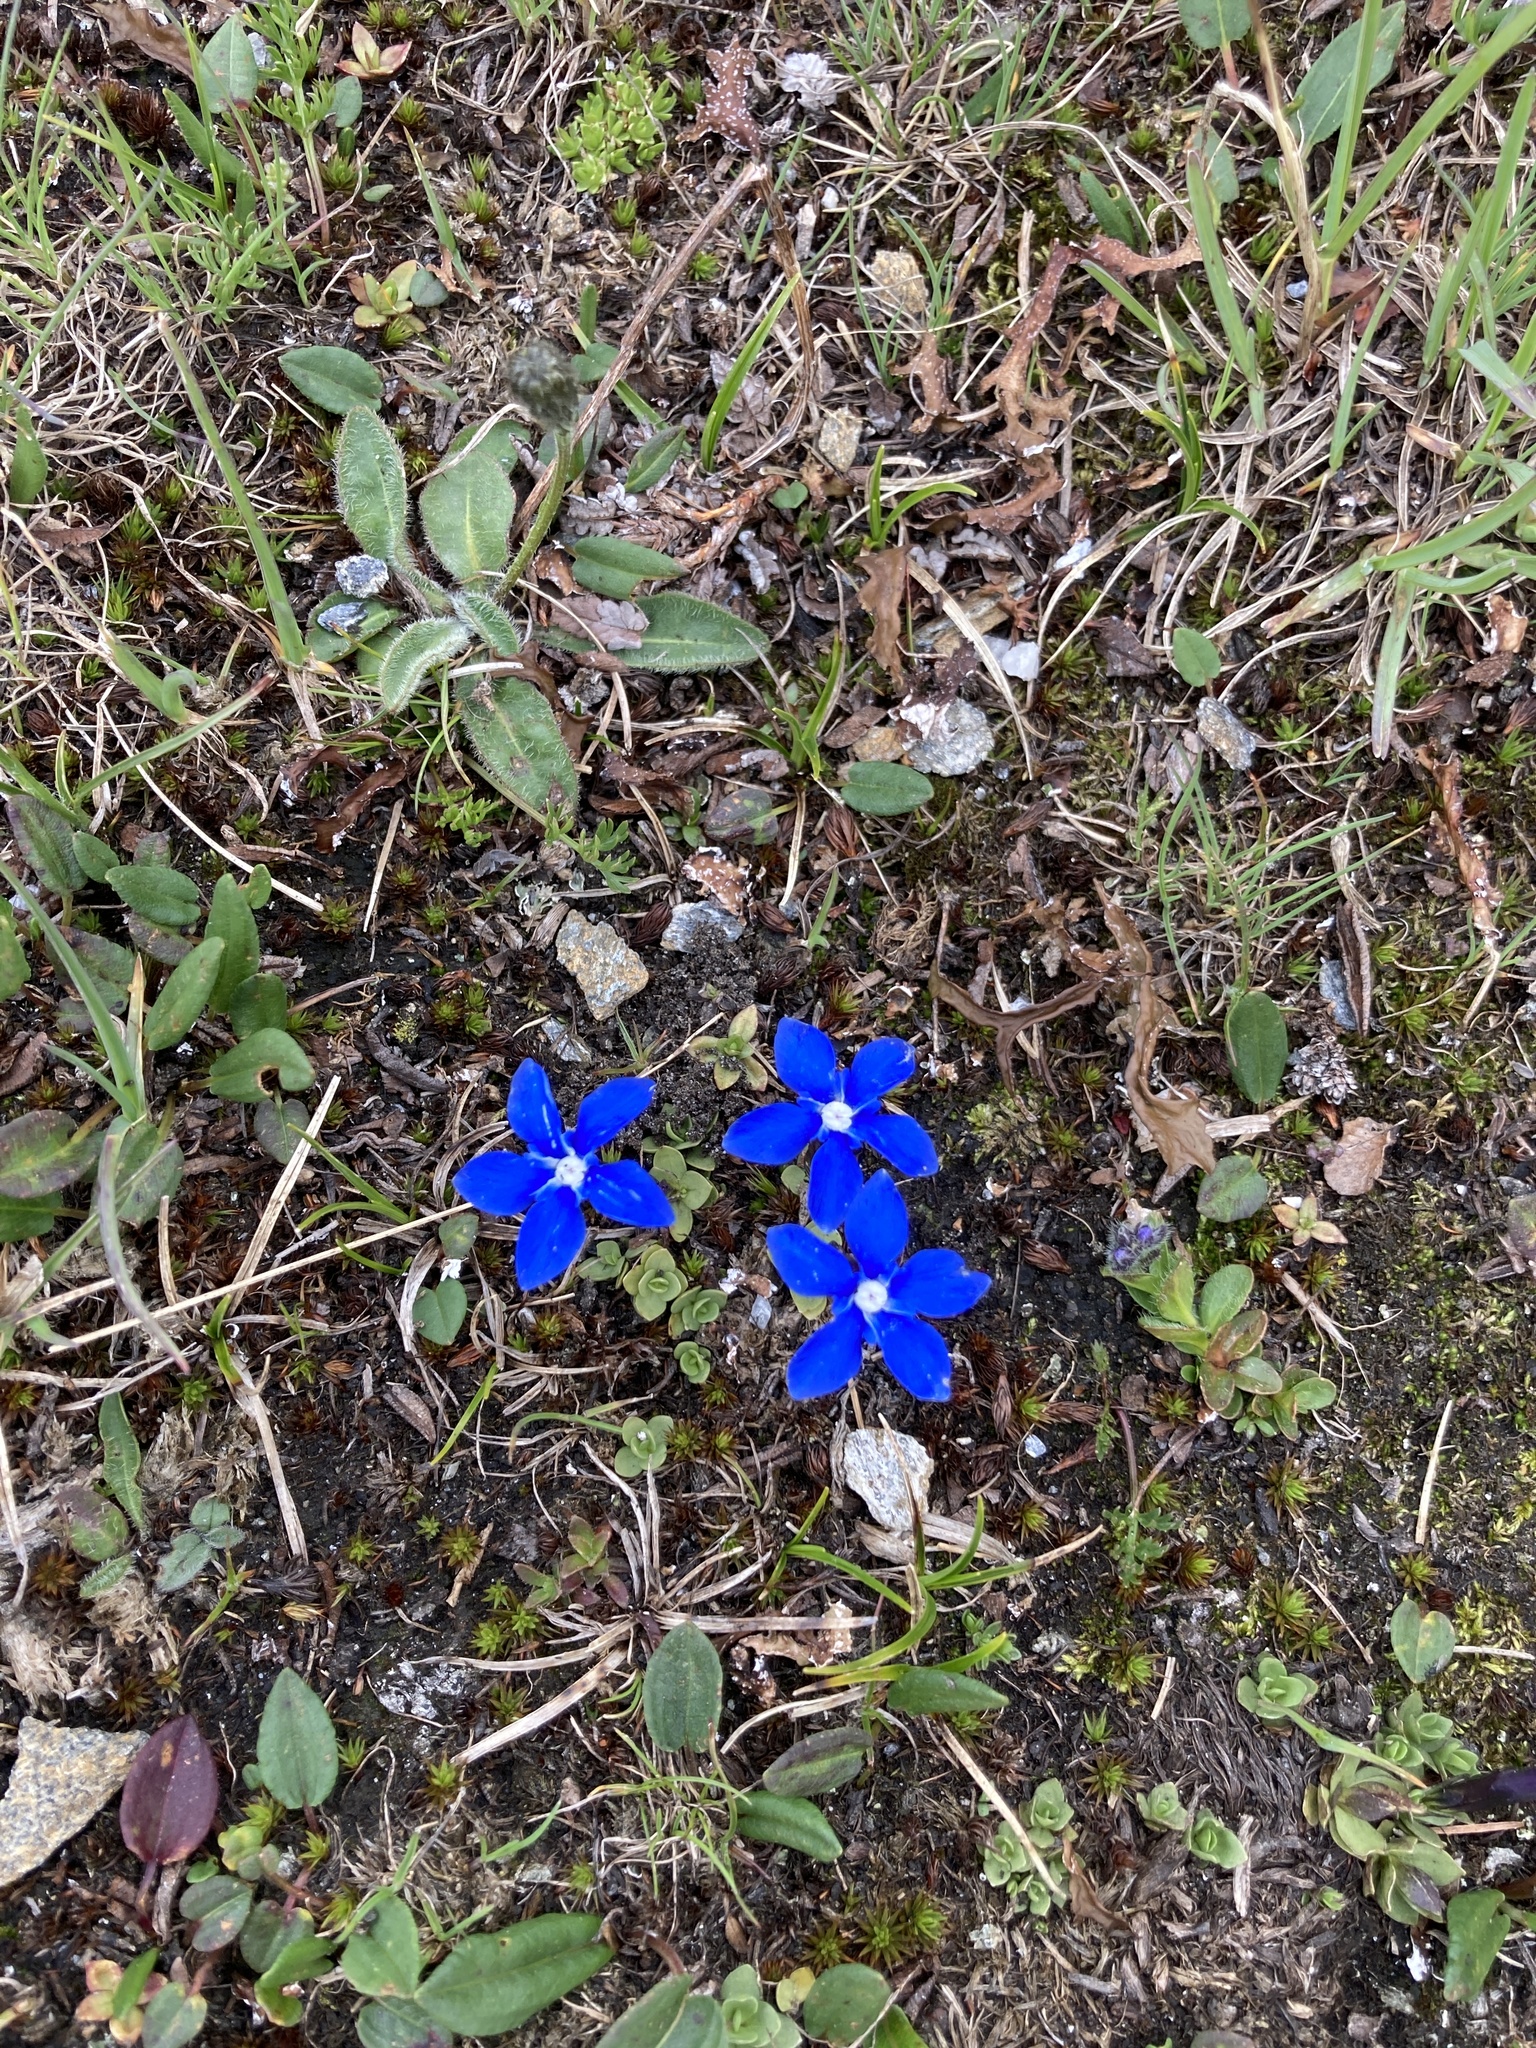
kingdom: Plantae
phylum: Tracheophyta
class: Magnoliopsida
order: Gentianales
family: Gentianaceae
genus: Gentiana
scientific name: Gentiana brachyphylla
